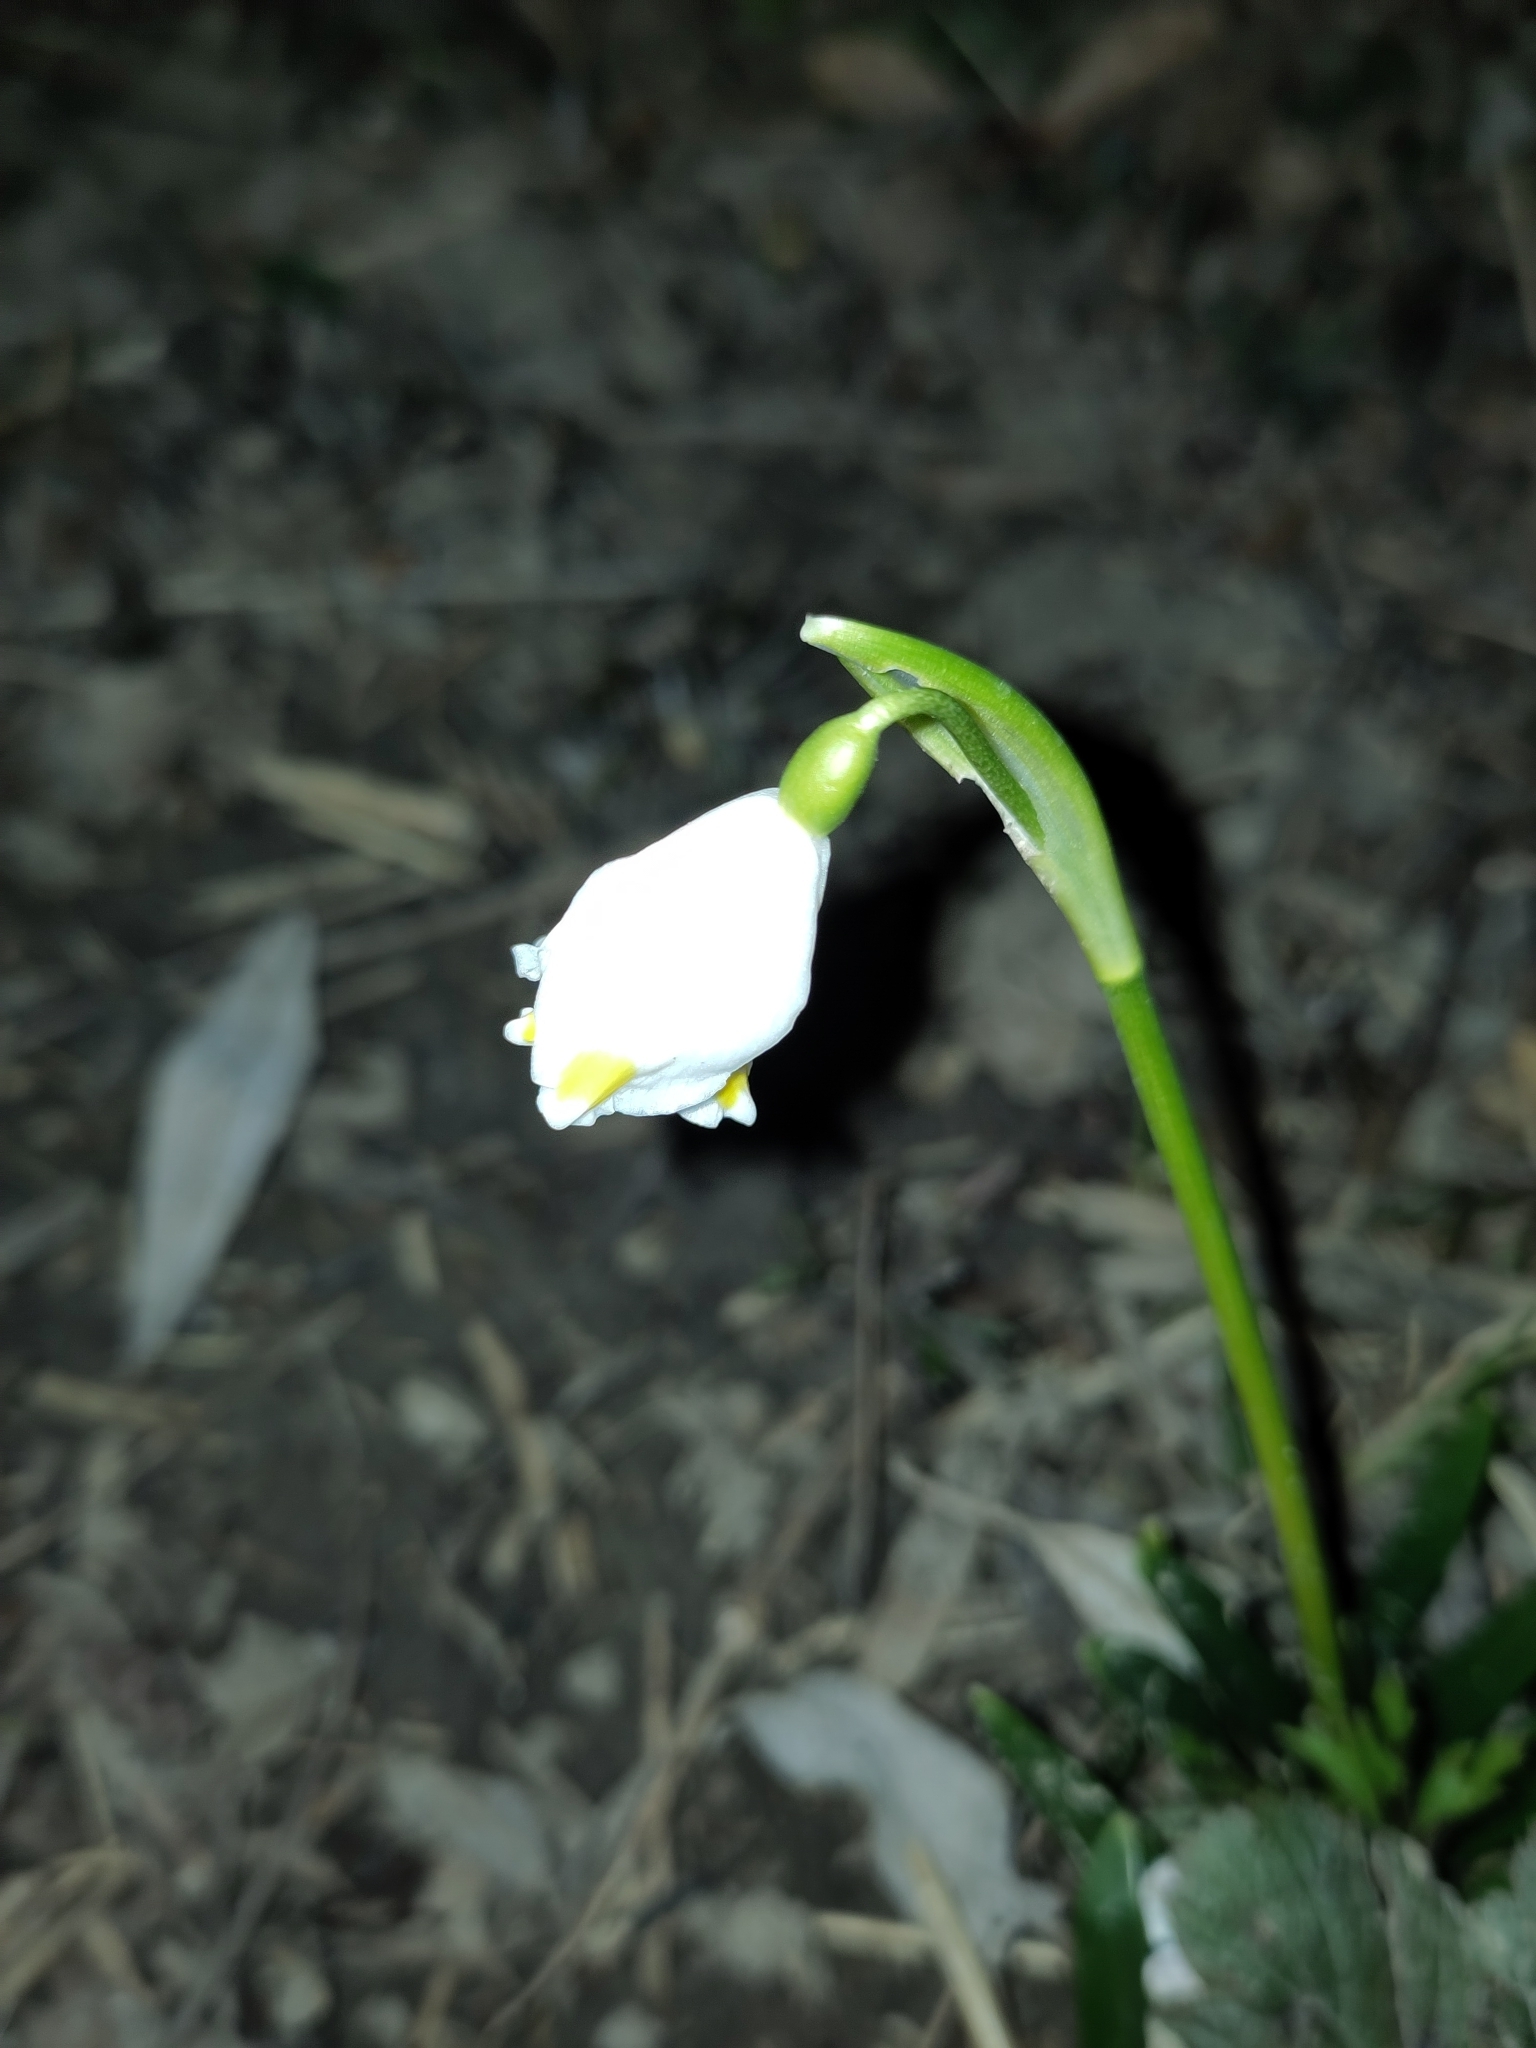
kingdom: Plantae
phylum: Tracheophyta
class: Liliopsida
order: Asparagales
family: Amaryllidaceae
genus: Leucojum
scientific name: Leucojum vernum
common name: Spring snowflake
